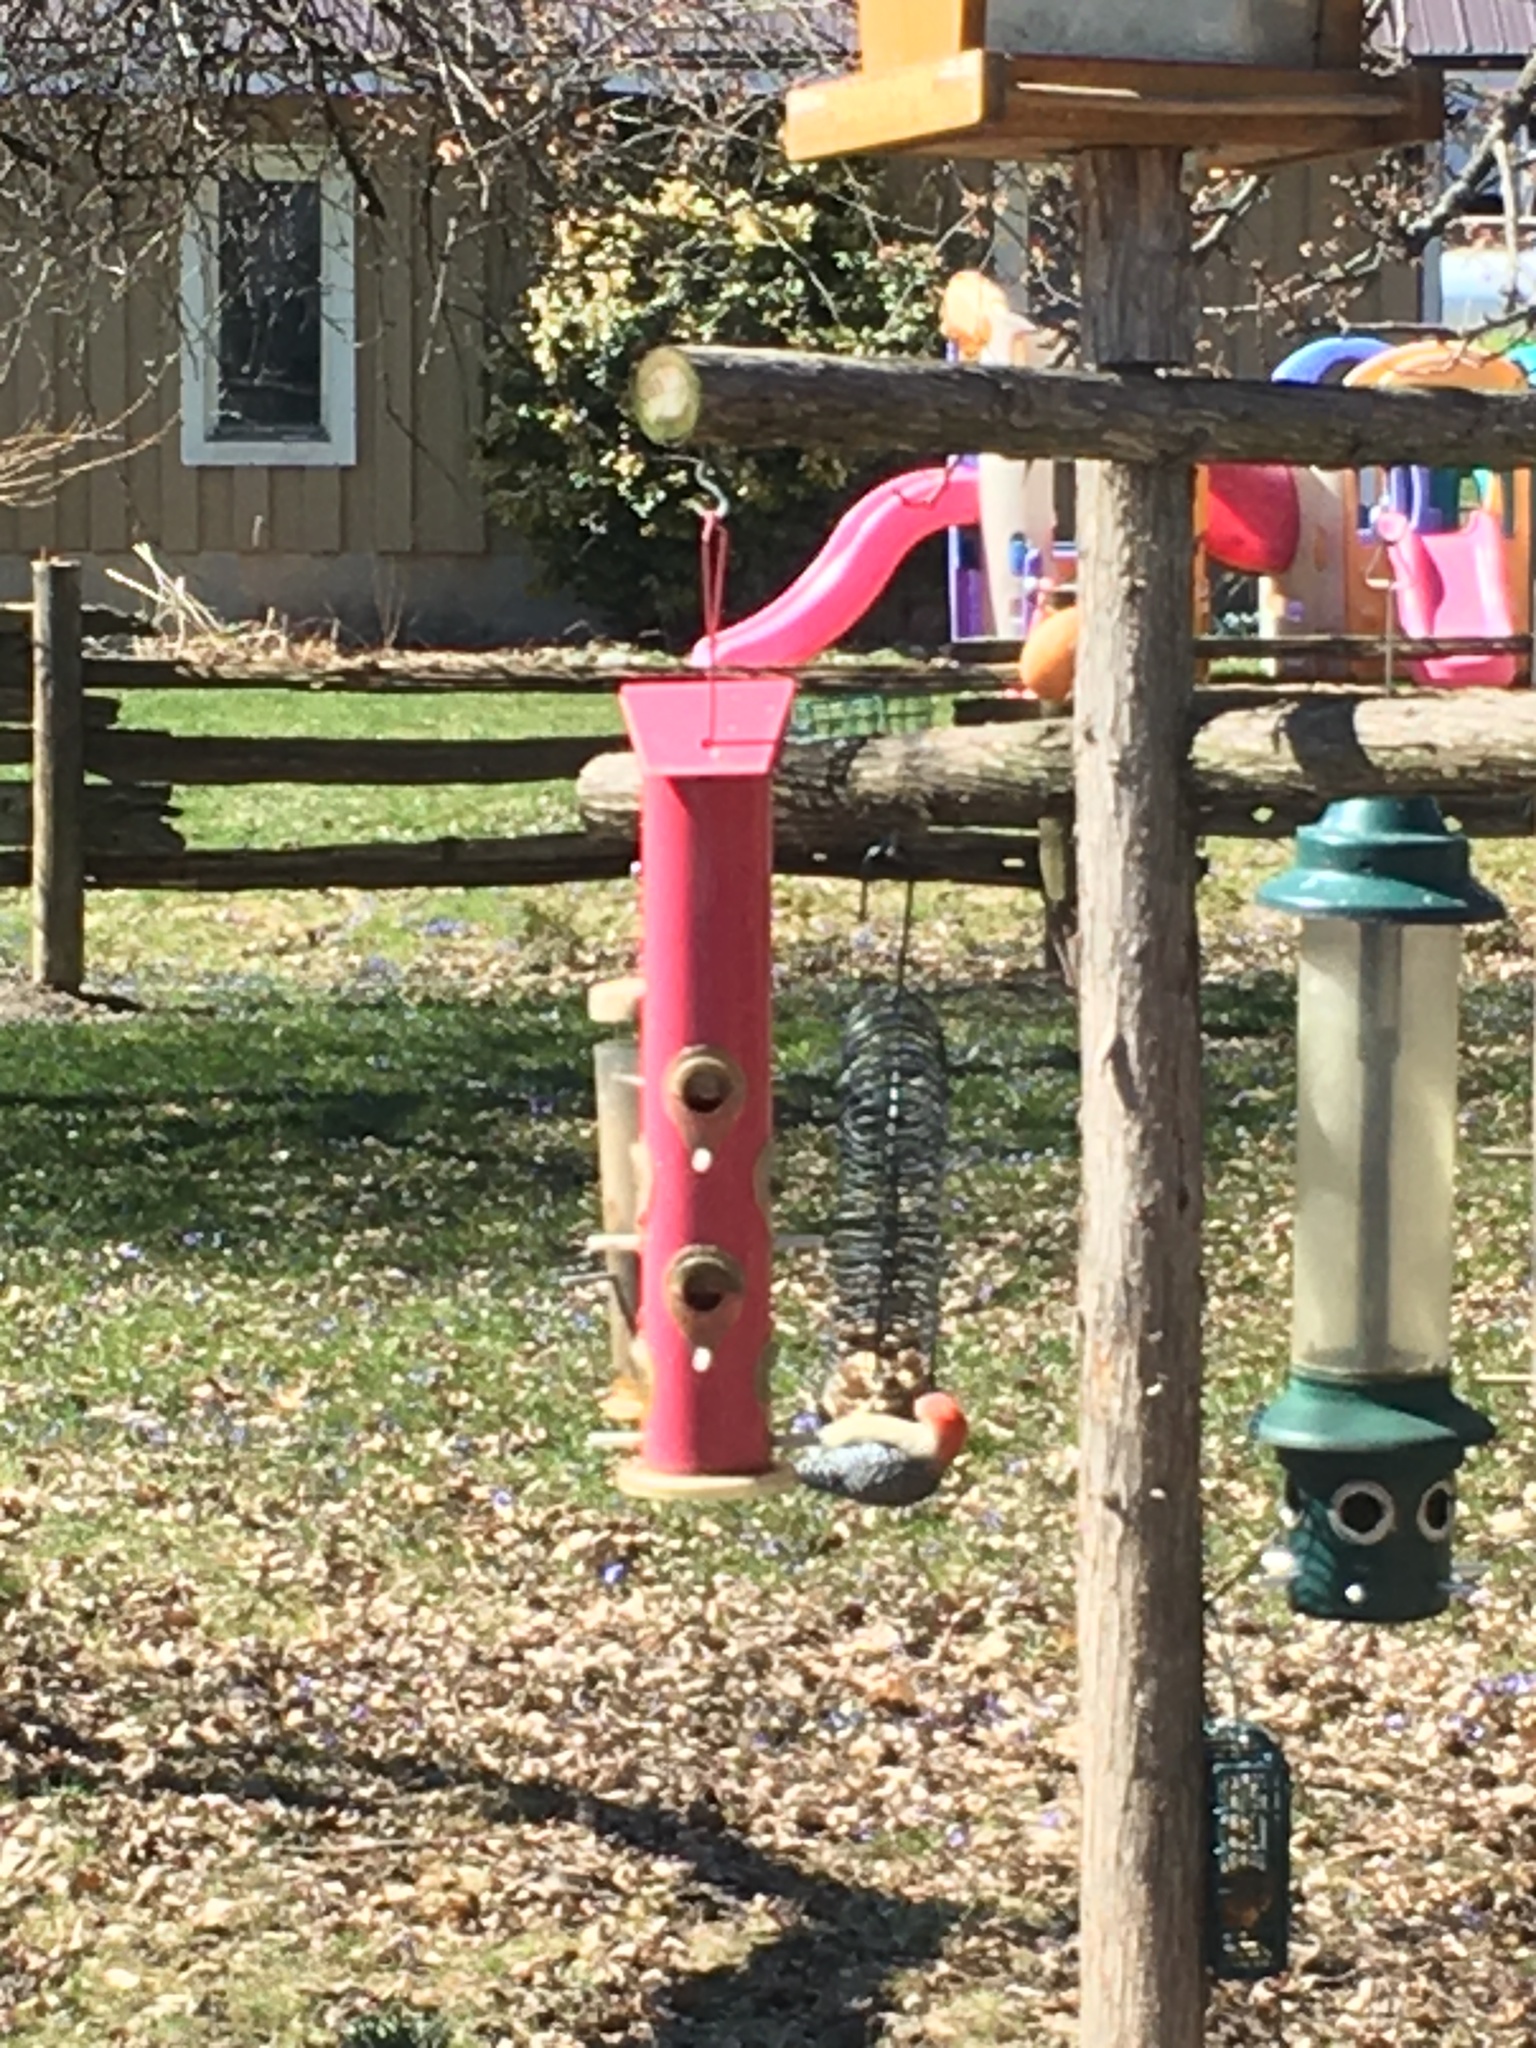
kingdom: Animalia
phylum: Chordata
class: Aves
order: Piciformes
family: Picidae
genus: Melanerpes
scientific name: Melanerpes carolinus
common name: Red-bellied woodpecker
